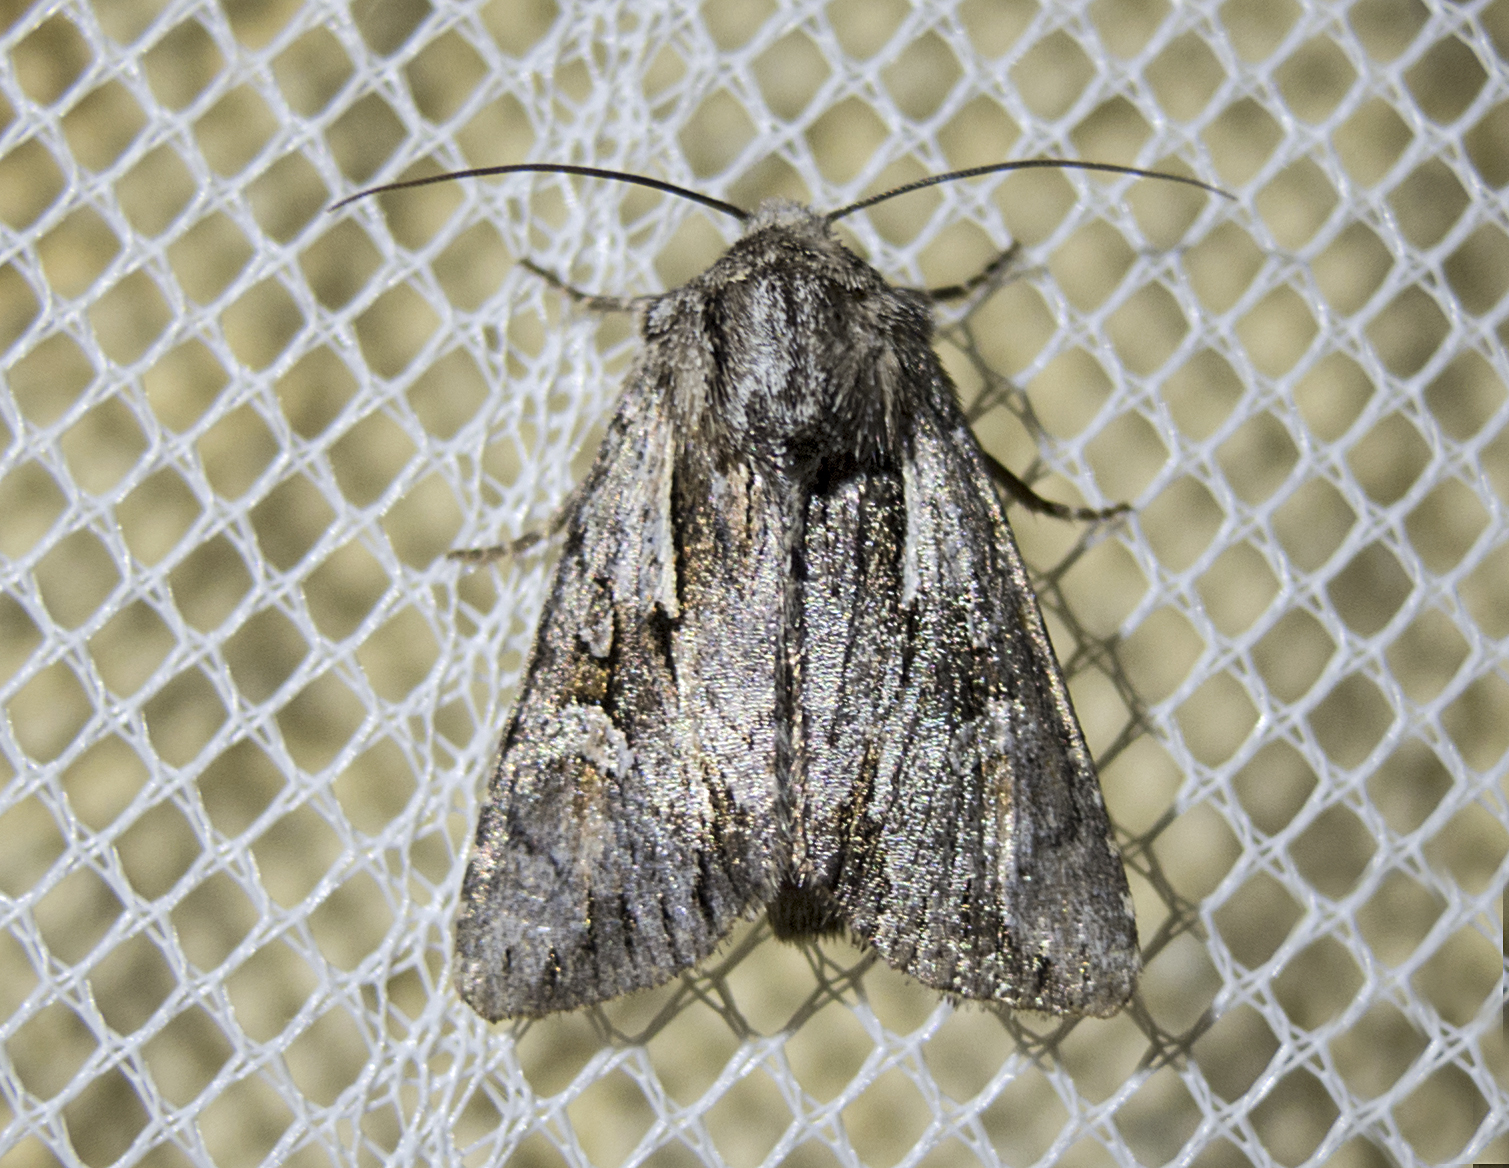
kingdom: Animalia
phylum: Arthropoda
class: Insecta
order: Lepidoptera
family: Noctuidae
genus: Chloantha
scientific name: Chloantha hyperici
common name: Pale-shouldered cloud
